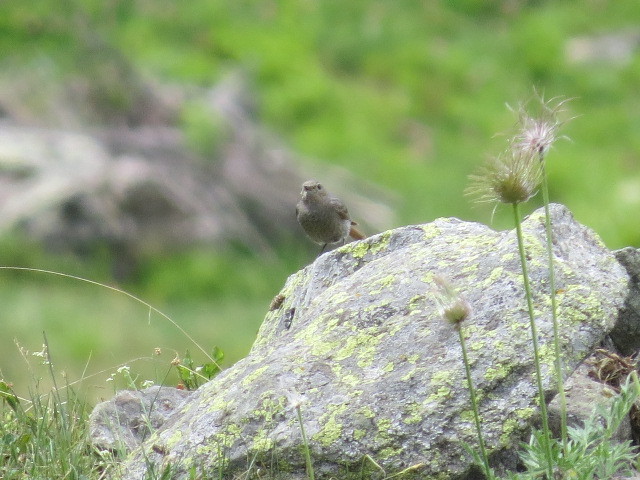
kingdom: Animalia
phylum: Chordata
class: Aves
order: Passeriformes
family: Muscicapidae
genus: Phoenicurus
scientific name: Phoenicurus ochruros
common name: Black redstart
